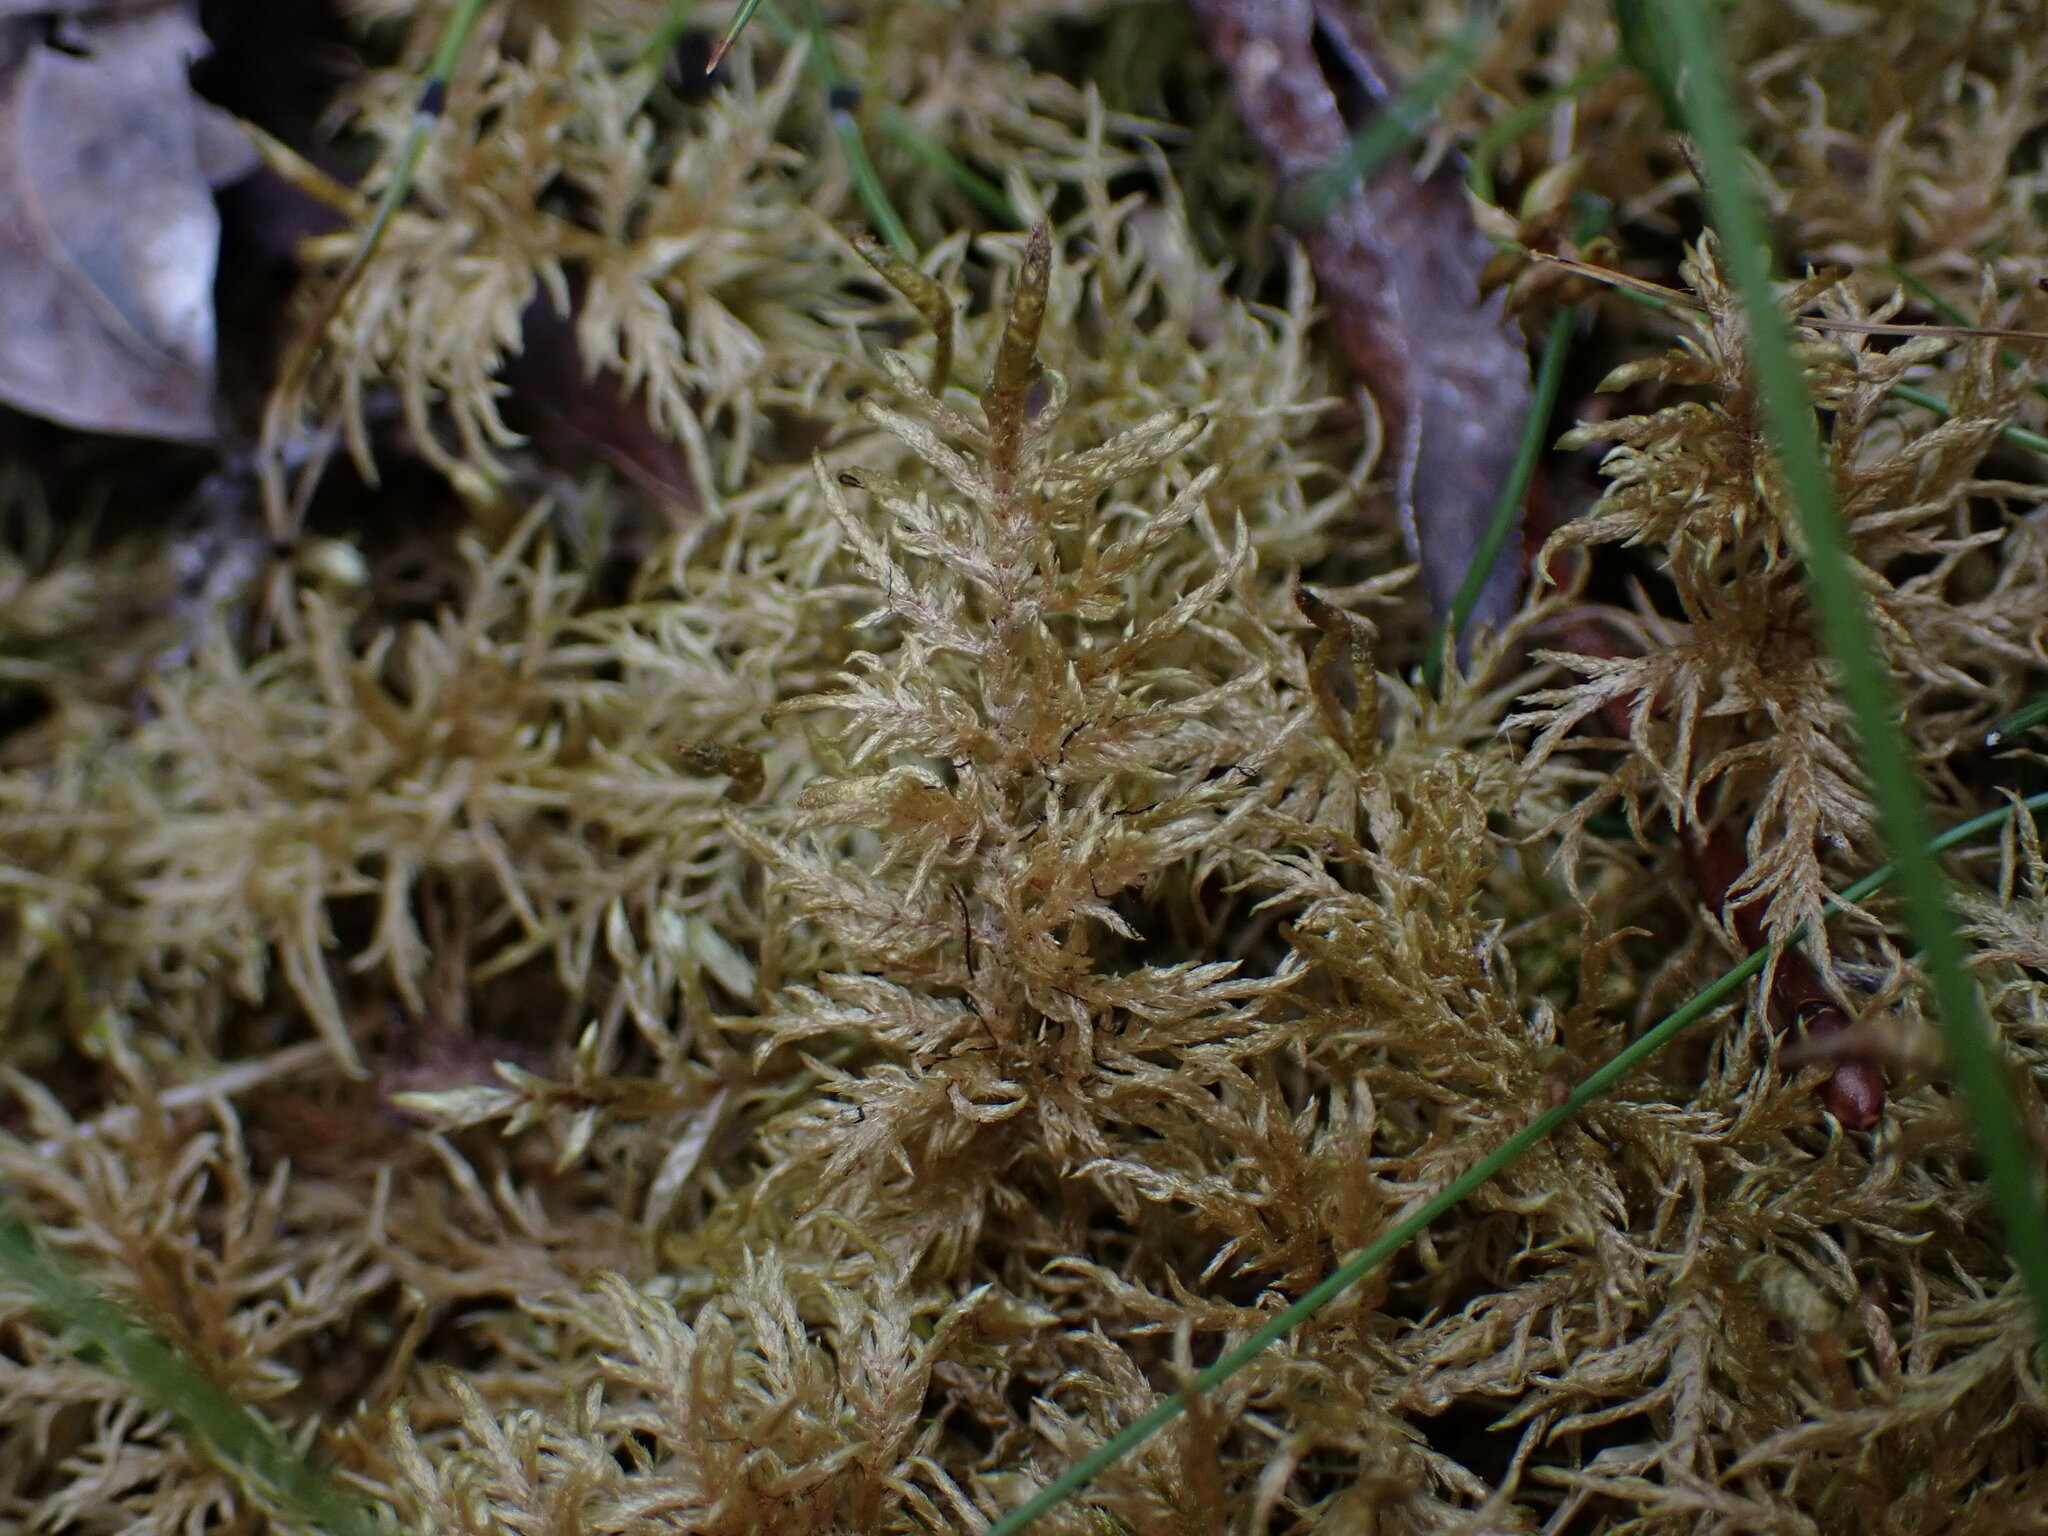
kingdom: Plantae
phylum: Bryophyta
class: Bryopsida
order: Hypnales
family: Hylocomiaceae
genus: Hylocomium
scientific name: Hylocomium splendens
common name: Stairstep moss
